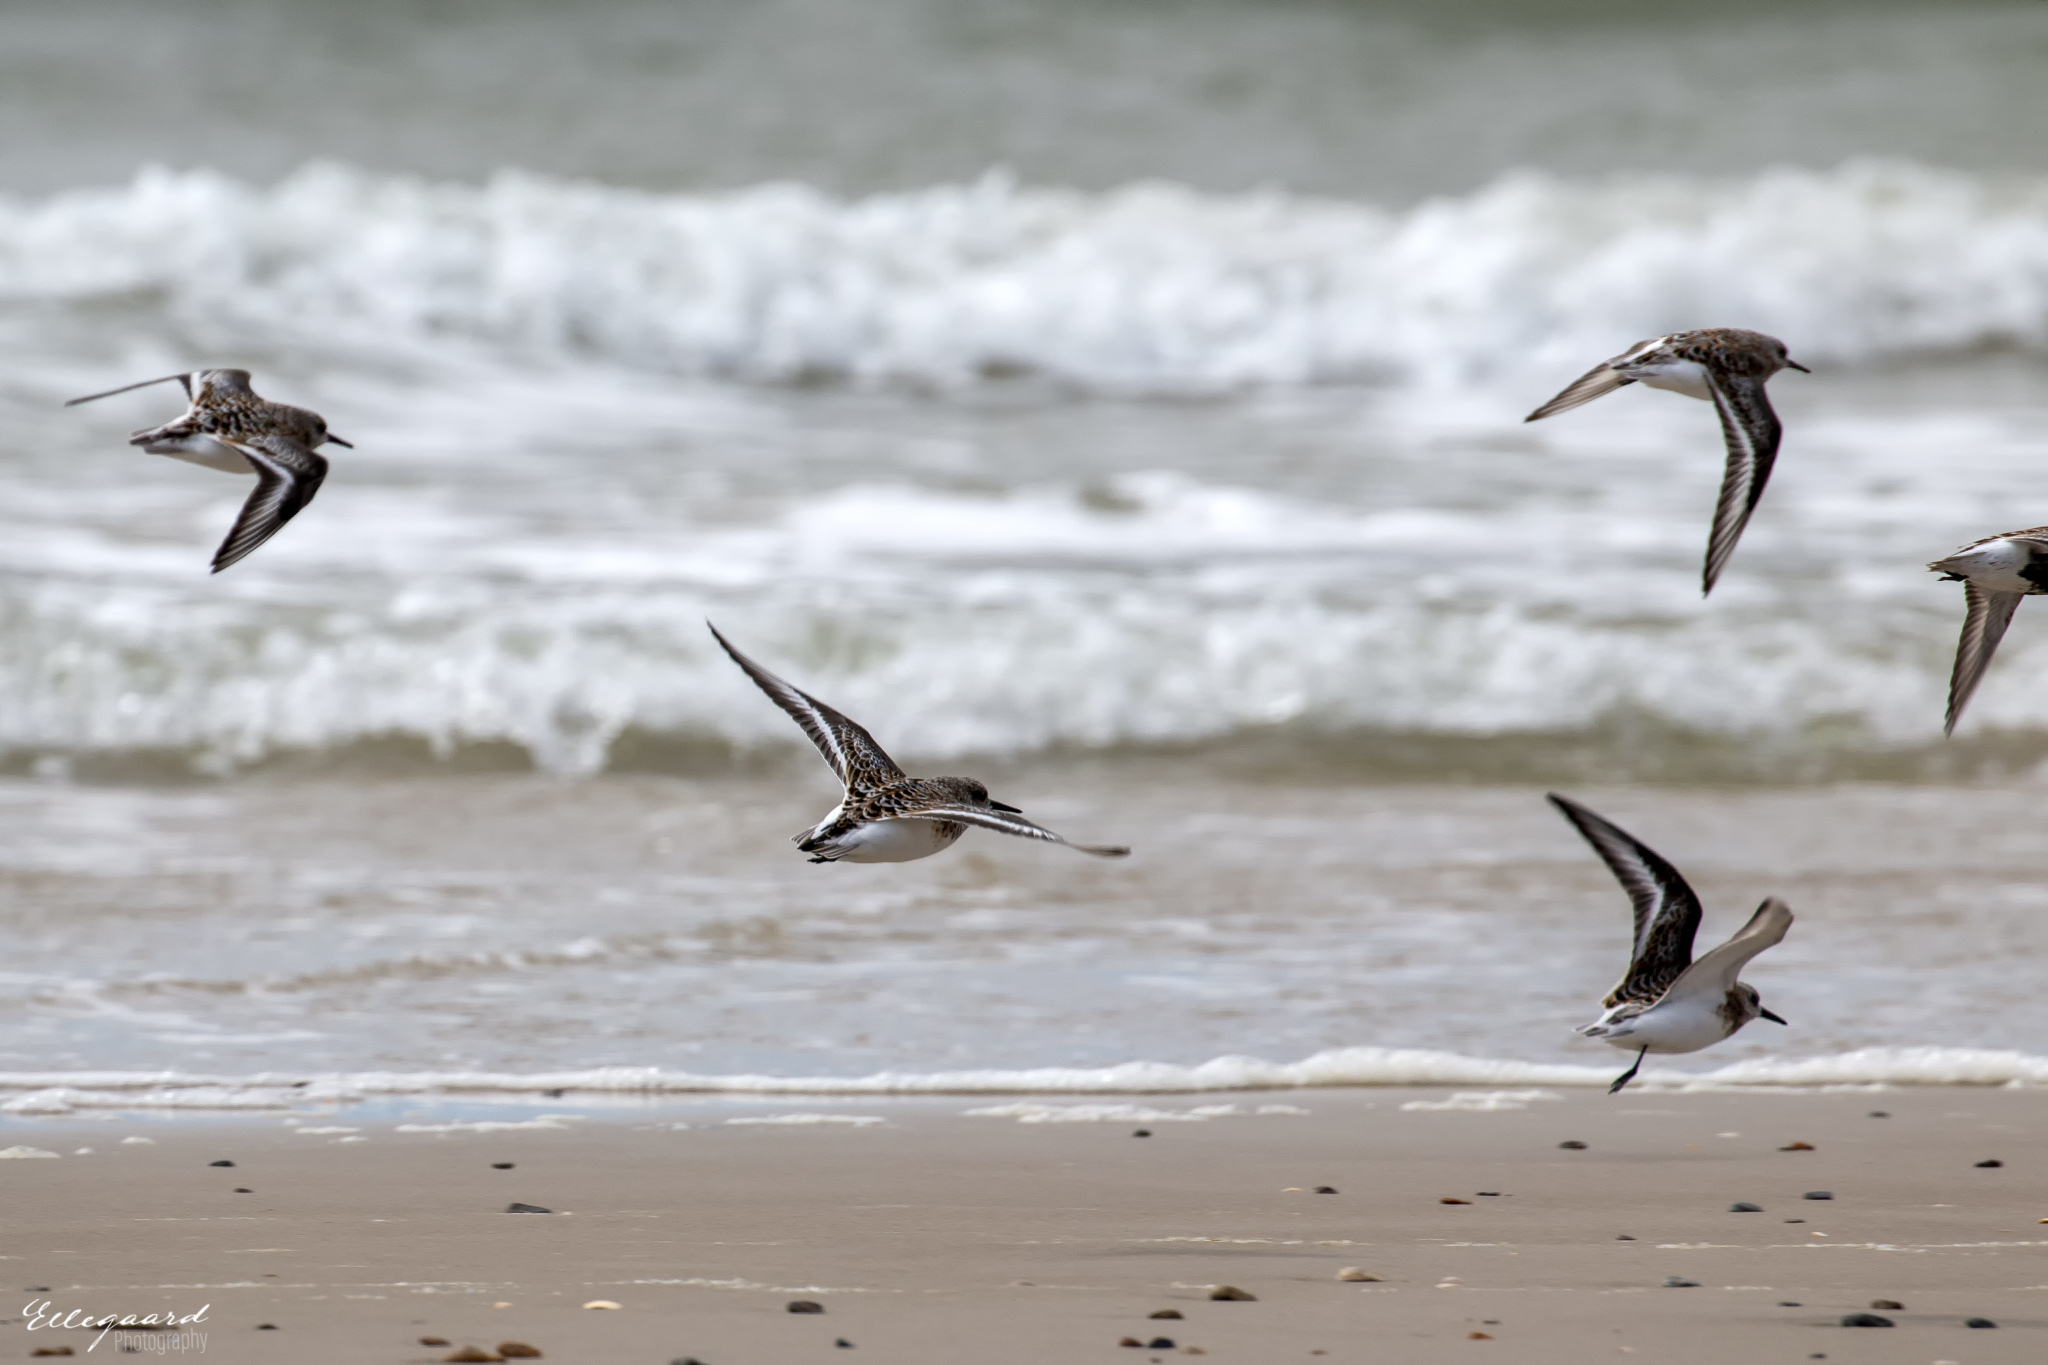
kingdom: Animalia
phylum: Chordata
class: Aves
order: Charadriiformes
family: Scolopacidae
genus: Calidris
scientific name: Calidris alpina
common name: Dunlin
